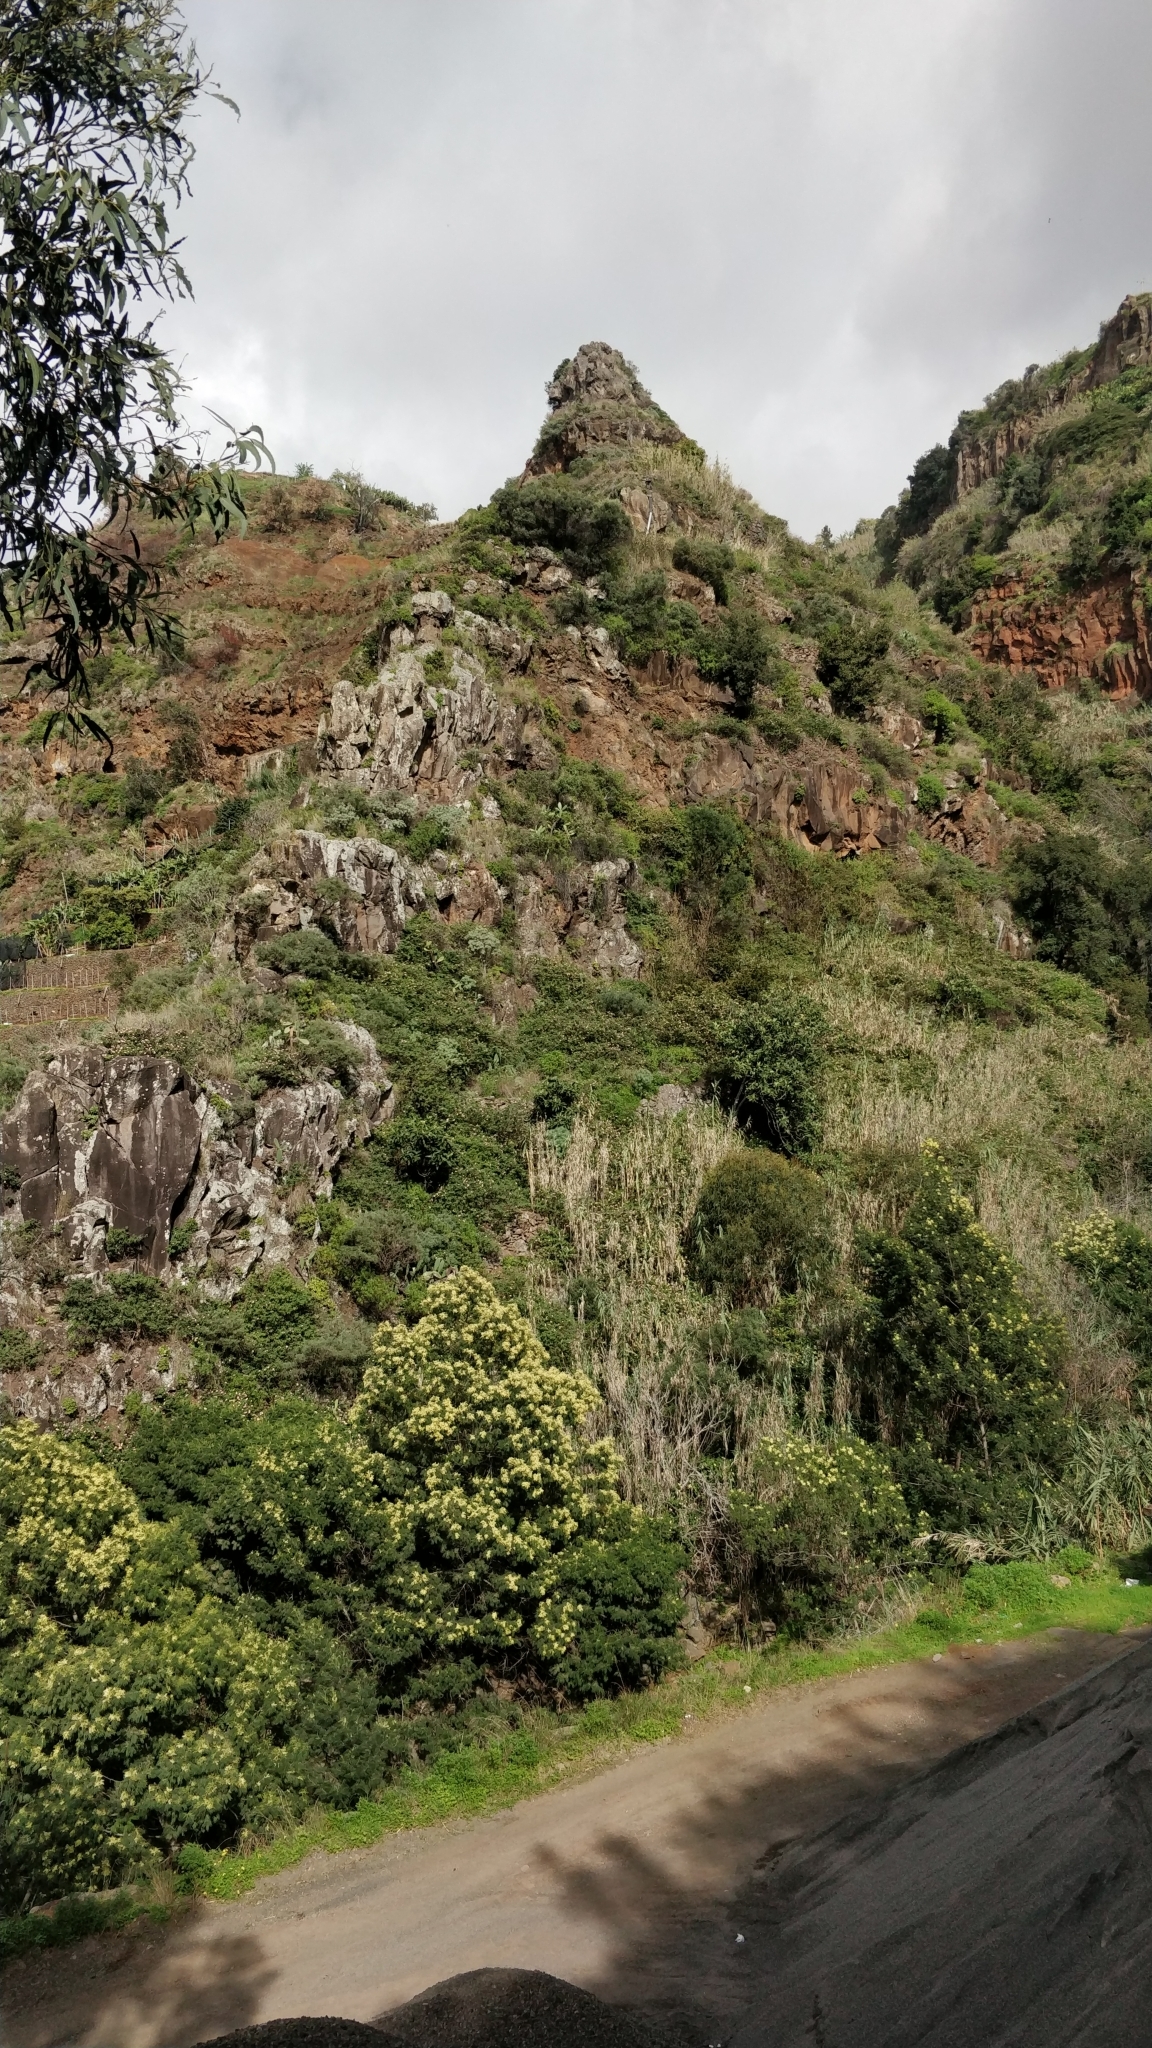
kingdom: Plantae
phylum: Tracheophyta
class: Magnoliopsida
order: Malpighiales
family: Euphorbiaceae
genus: Euphorbia
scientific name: Euphorbia piscatoria
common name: Fish-stunning spurge
